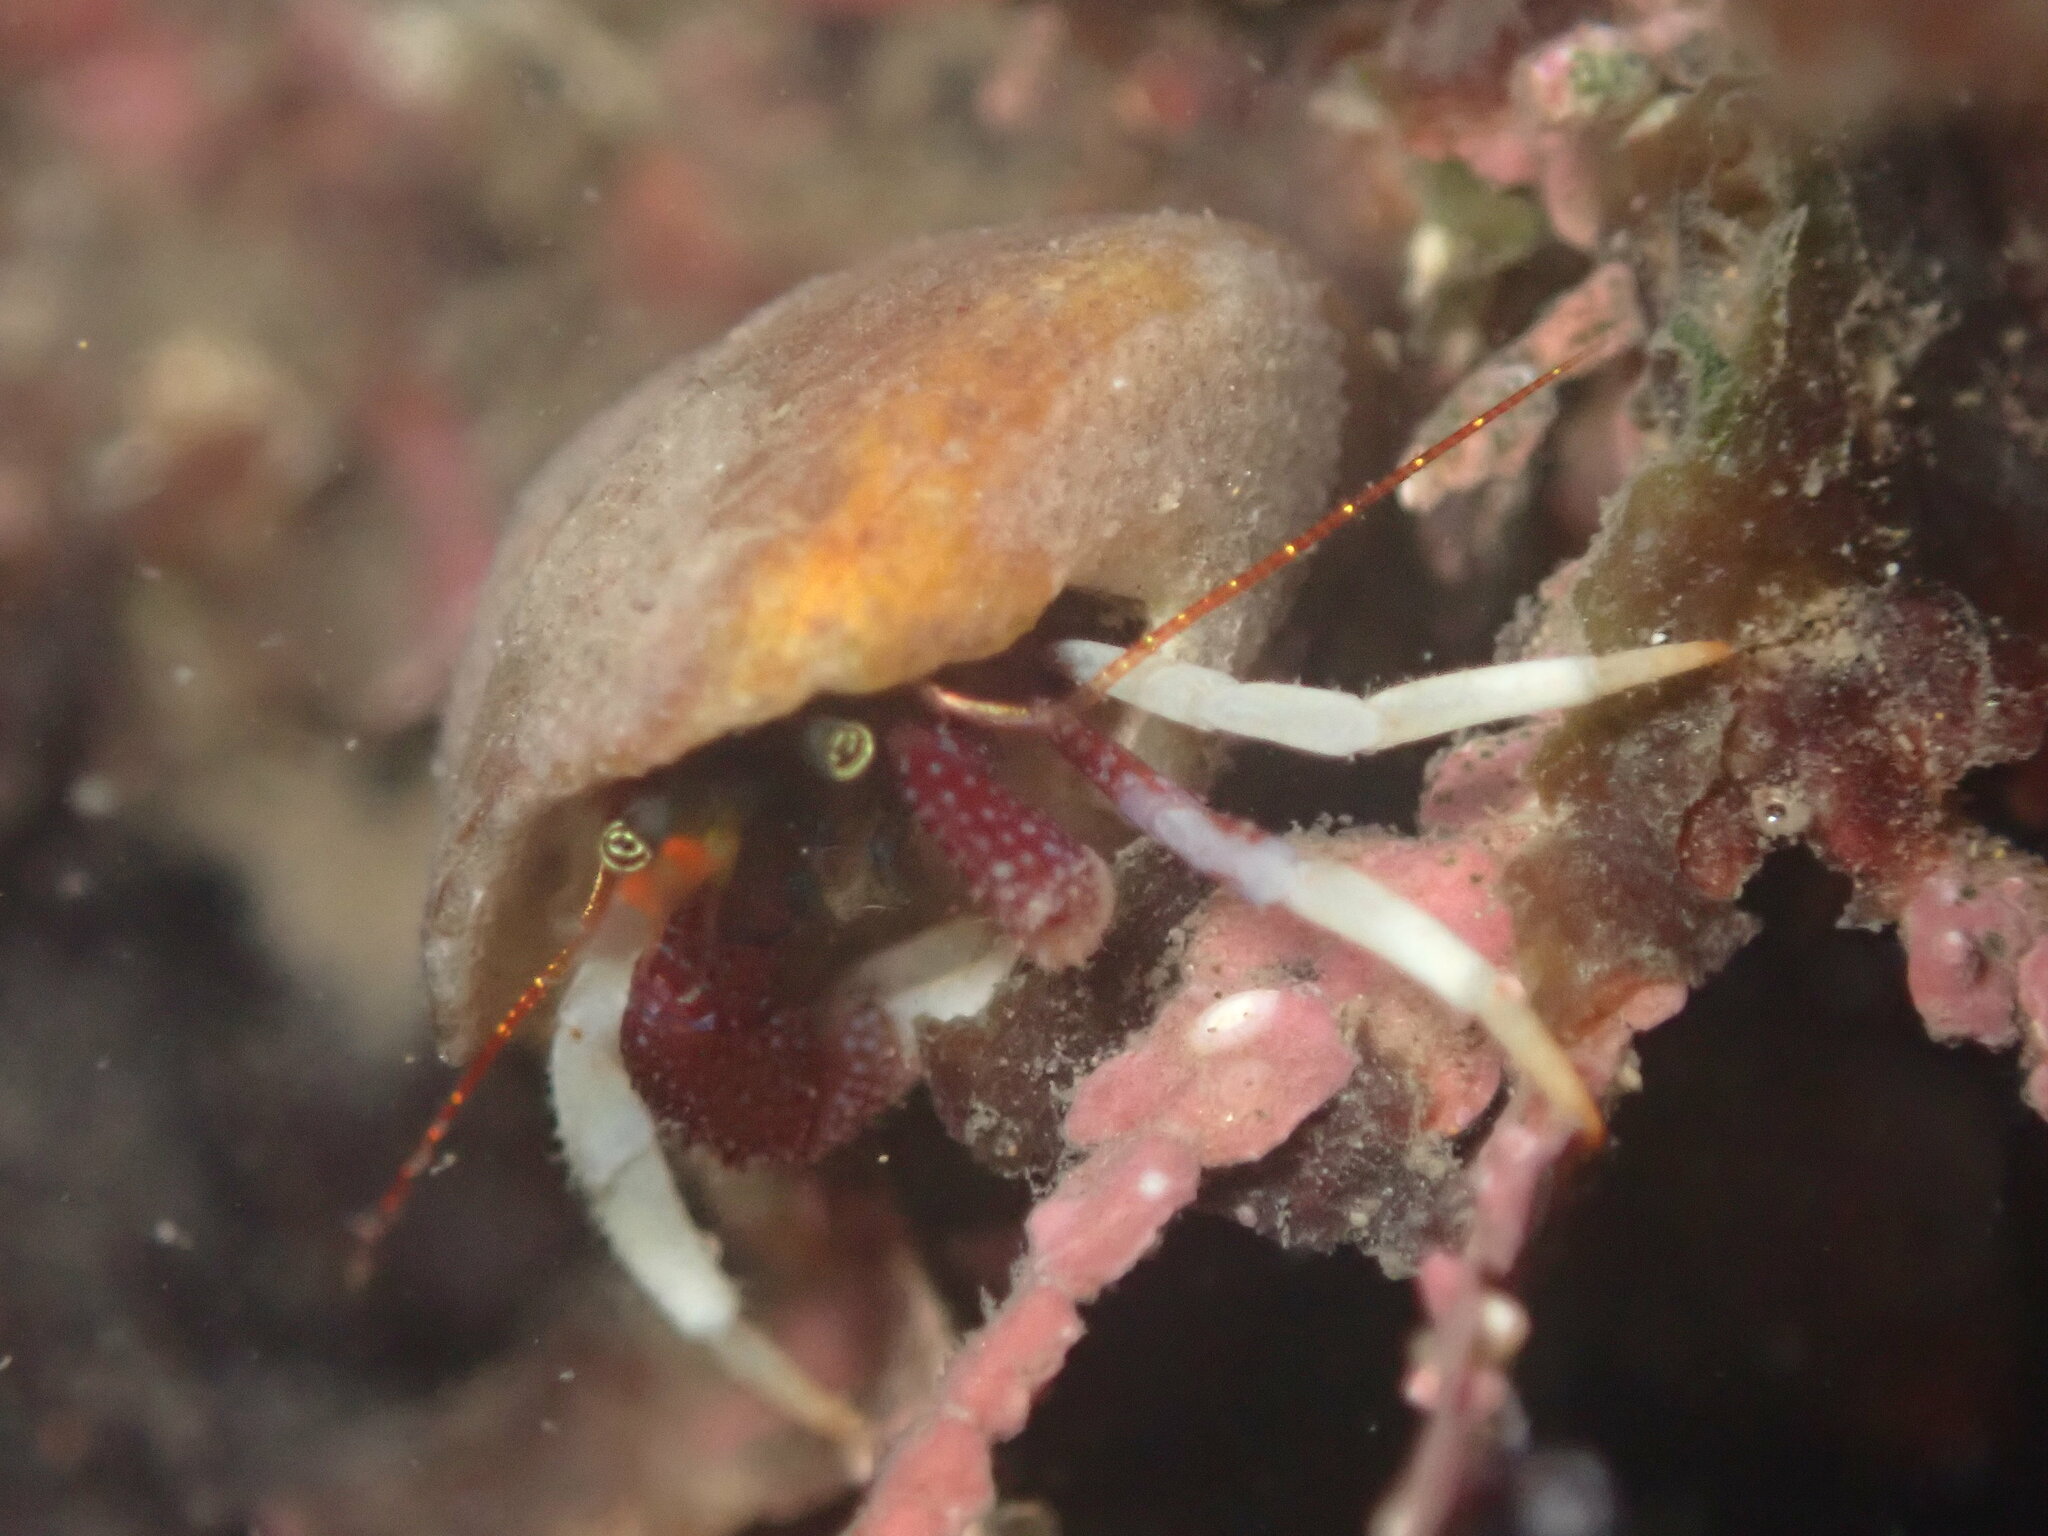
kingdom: Animalia
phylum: Arthropoda
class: Malacostraca
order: Decapoda
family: Paguridae
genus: Pagurus
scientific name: Pagurus hemphilli
